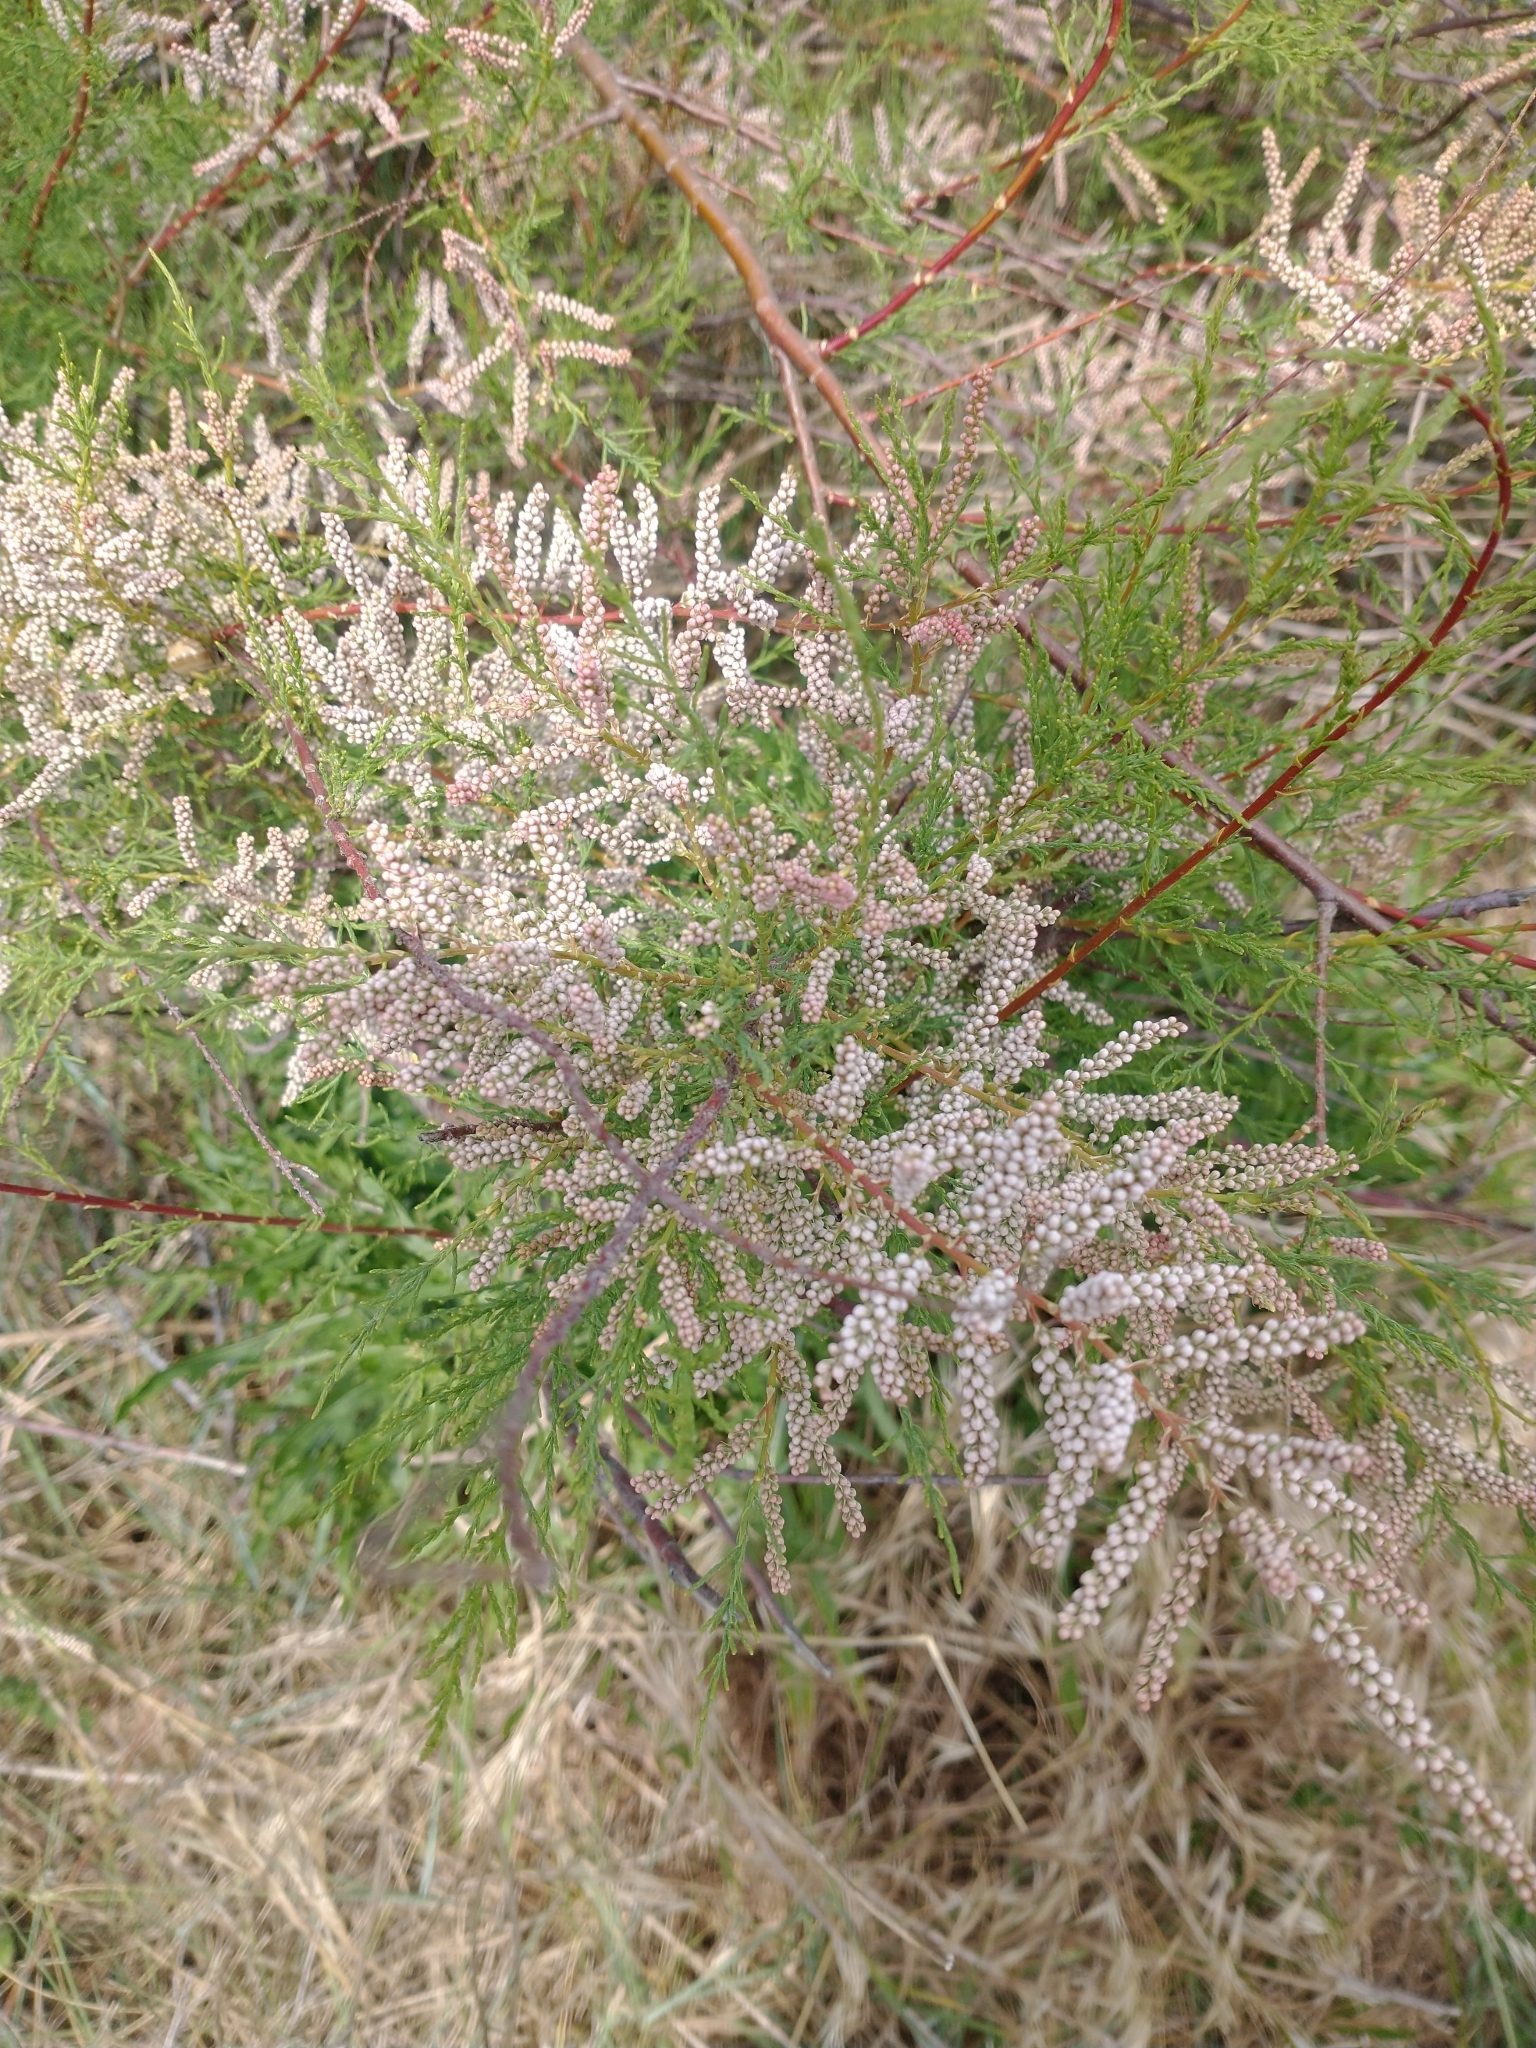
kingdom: Plantae
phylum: Tracheophyta
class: Magnoliopsida
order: Caryophyllales
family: Tamaricaceae
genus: Tamarix
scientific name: Tamarix gallica
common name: Tamarisk
